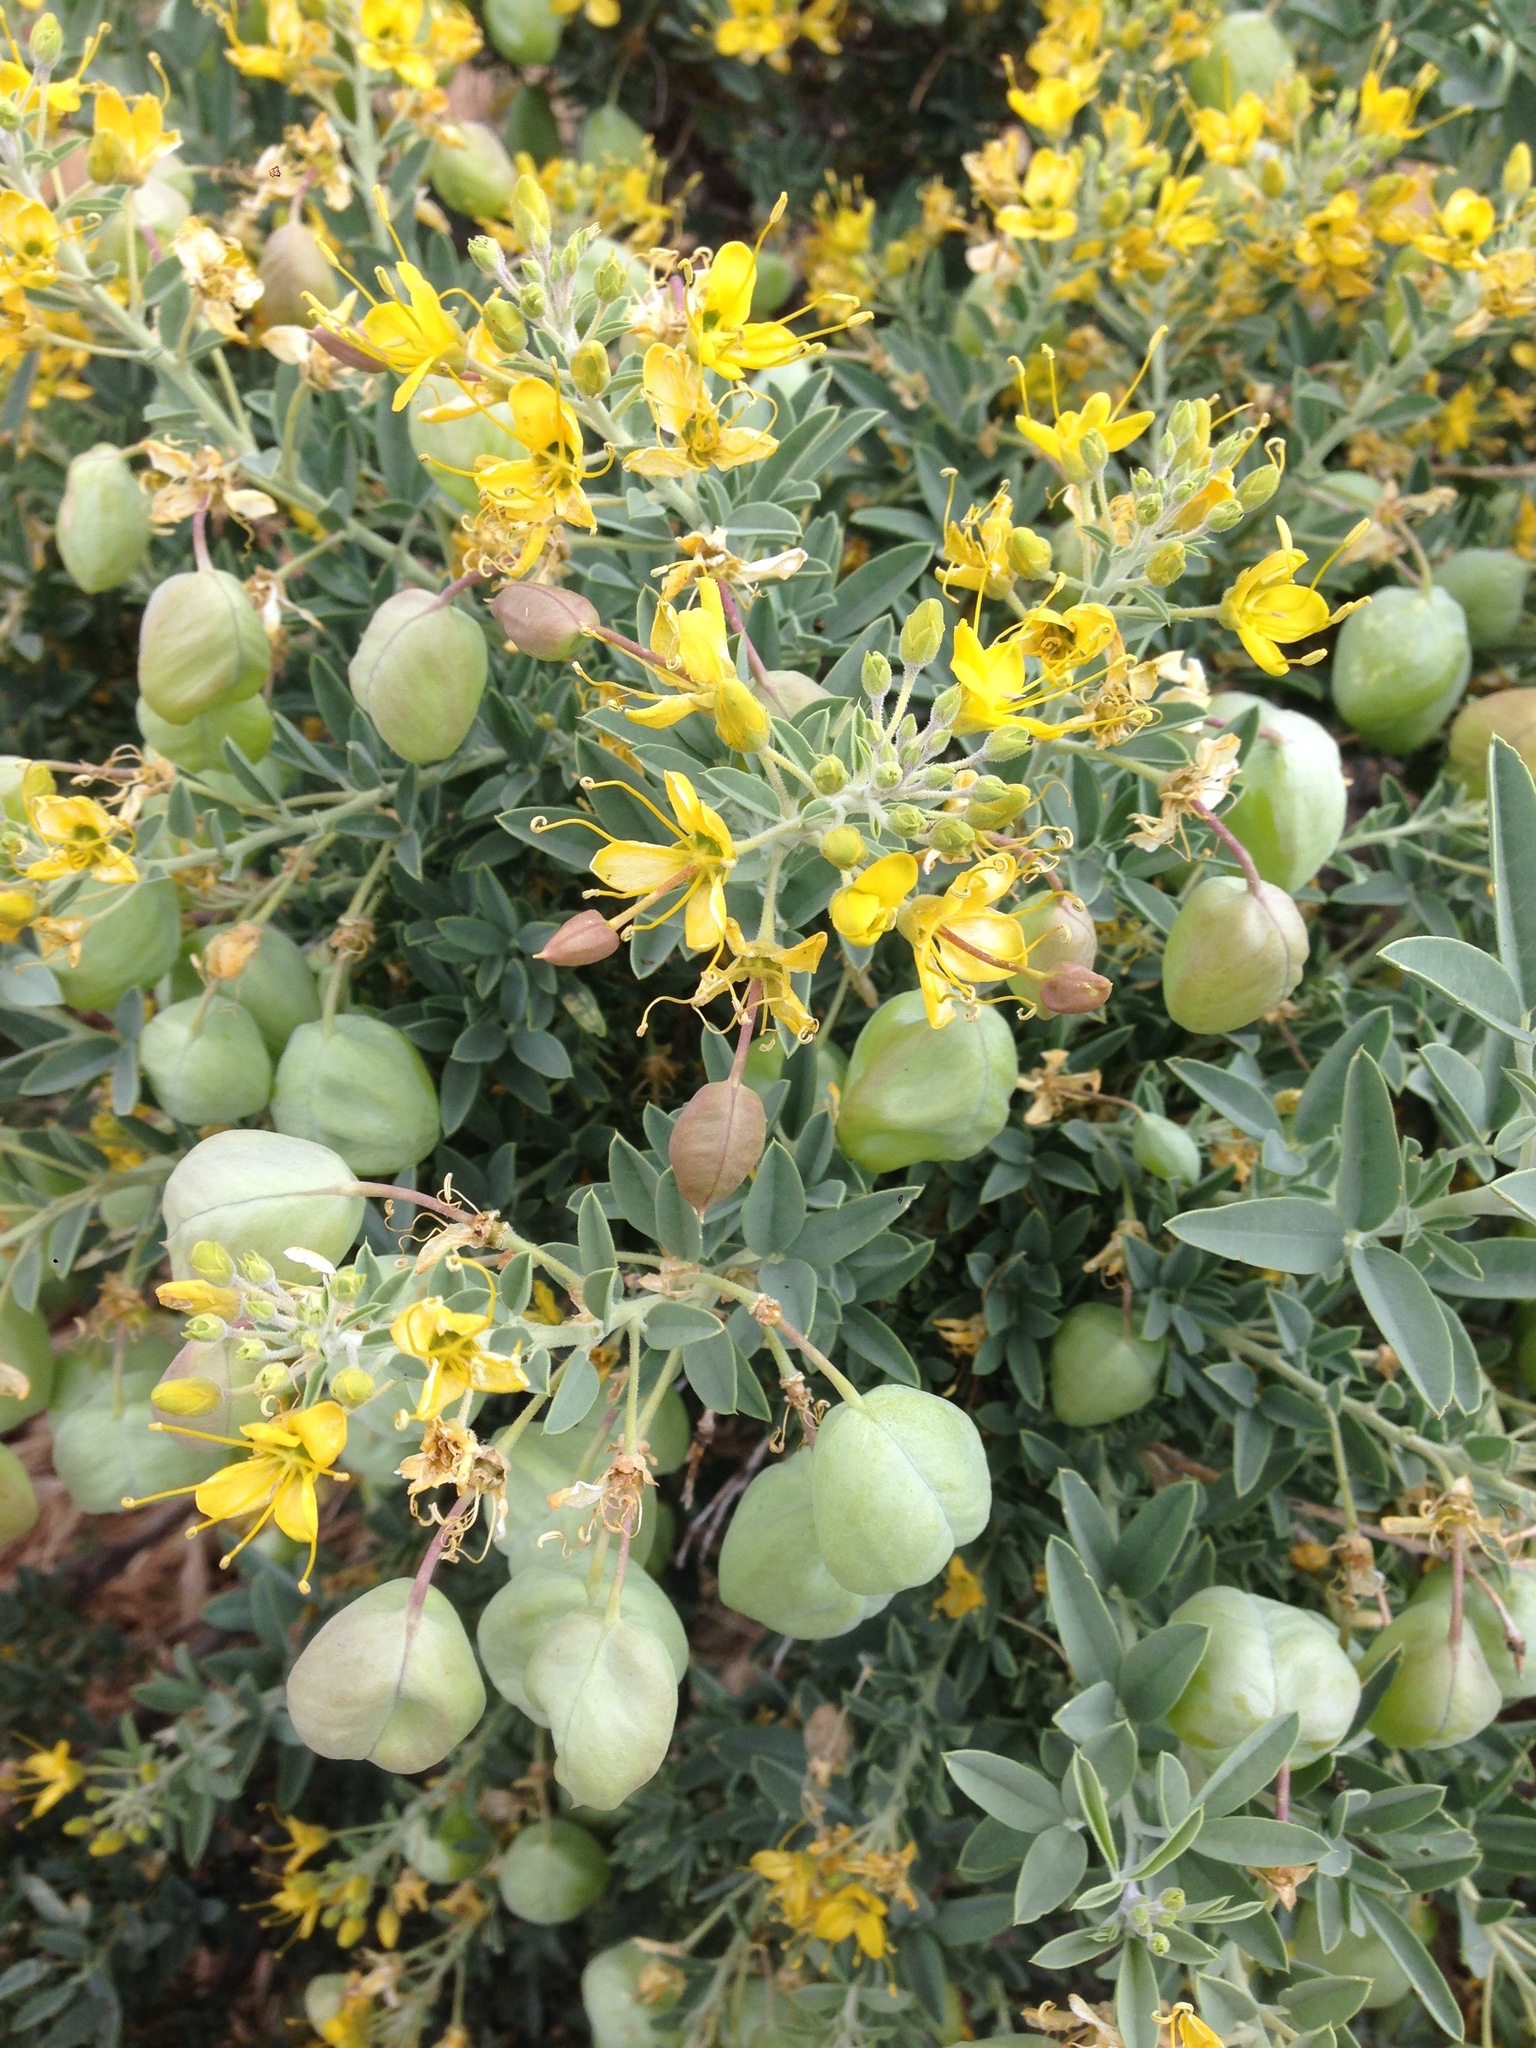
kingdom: Plantae
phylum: Tracheophyta
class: Magnoliopsida
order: Brassicales
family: Cleomaceae
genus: Cleomella
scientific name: Cleomella arborea
